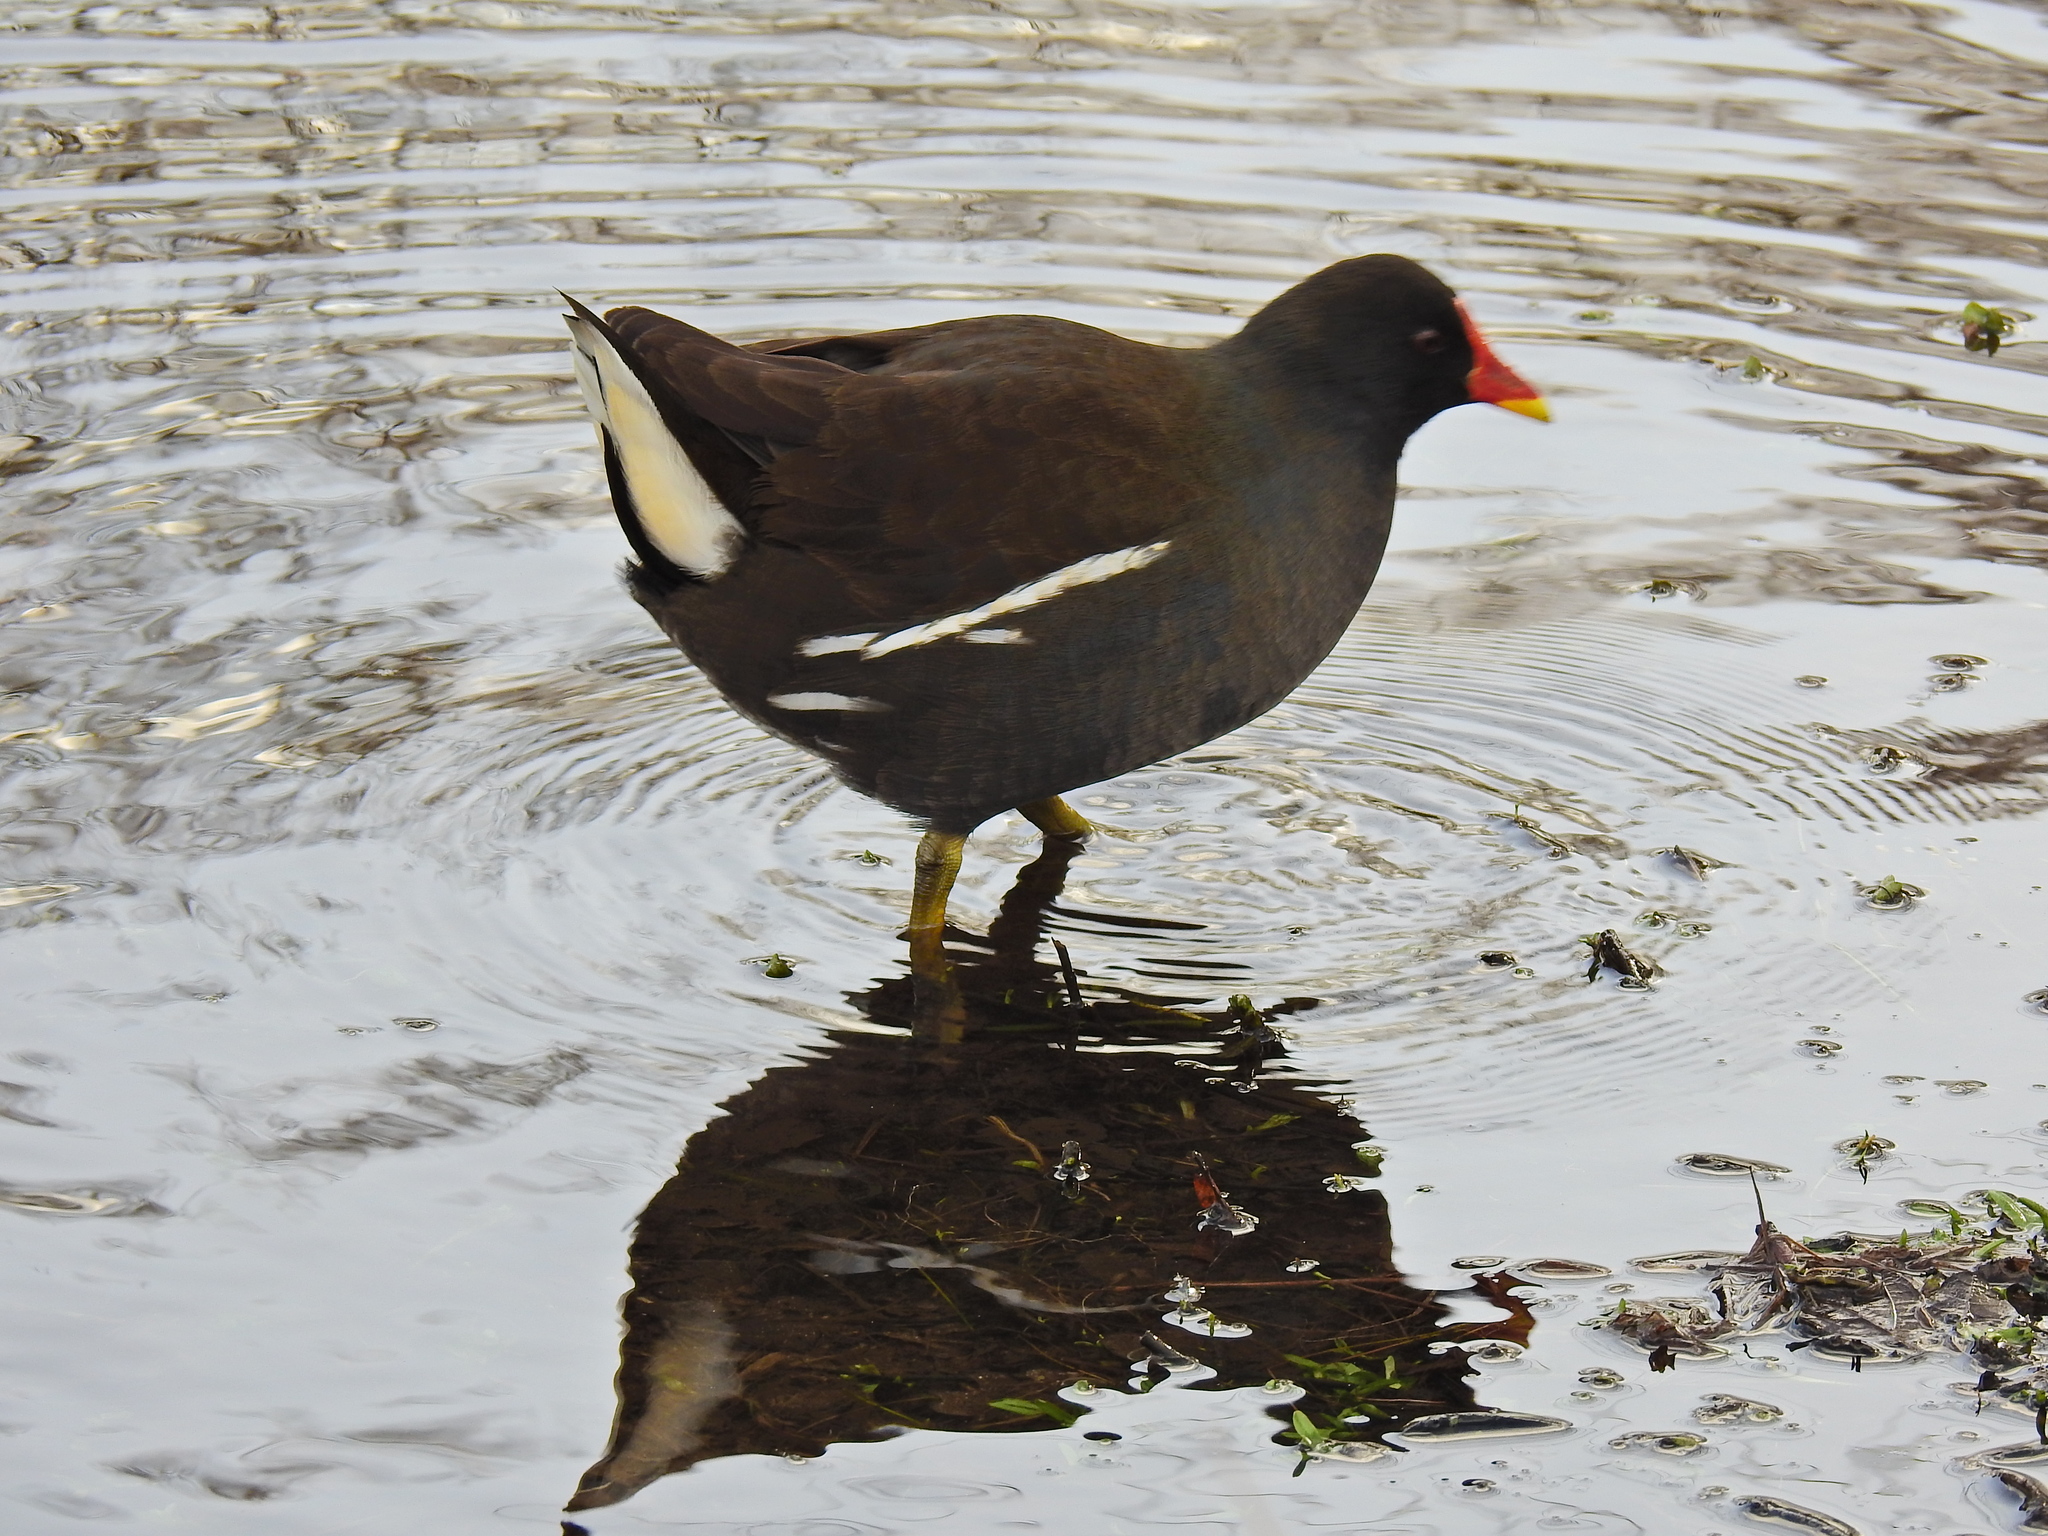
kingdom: Animalia
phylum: Chordata
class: Aves
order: Gruiformes
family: Rallidae
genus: Gallinula
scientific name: Gallinula chloropus
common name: Common moorhen
